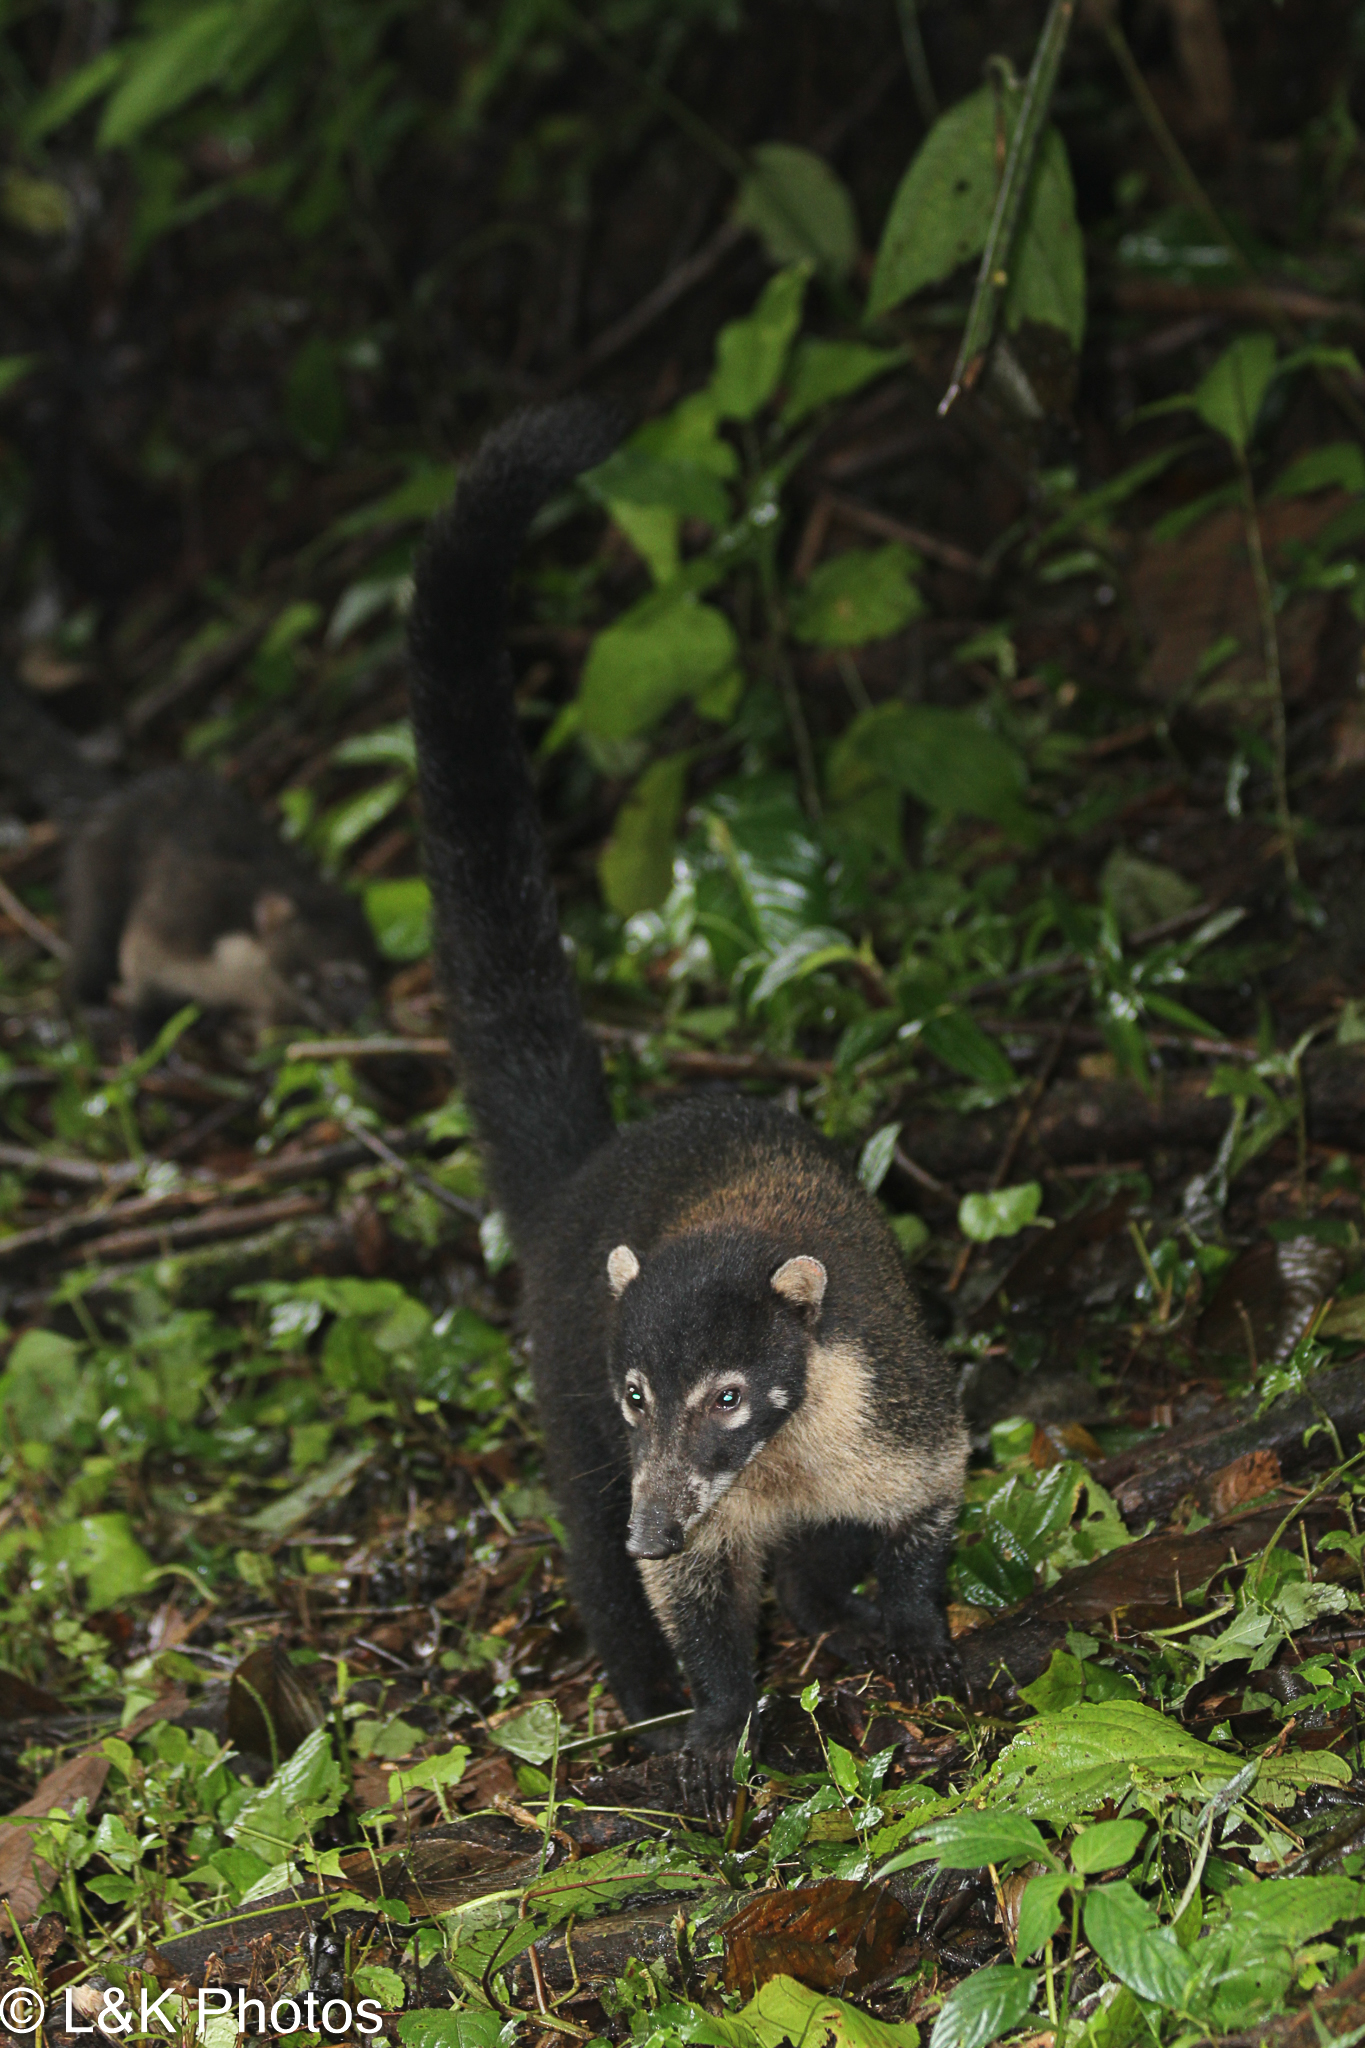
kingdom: Animalia
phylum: Chordata
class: Mammalia
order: Carnivora
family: Procyonidae
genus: Nasua
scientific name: Nasua narica
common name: White-nosed coati
